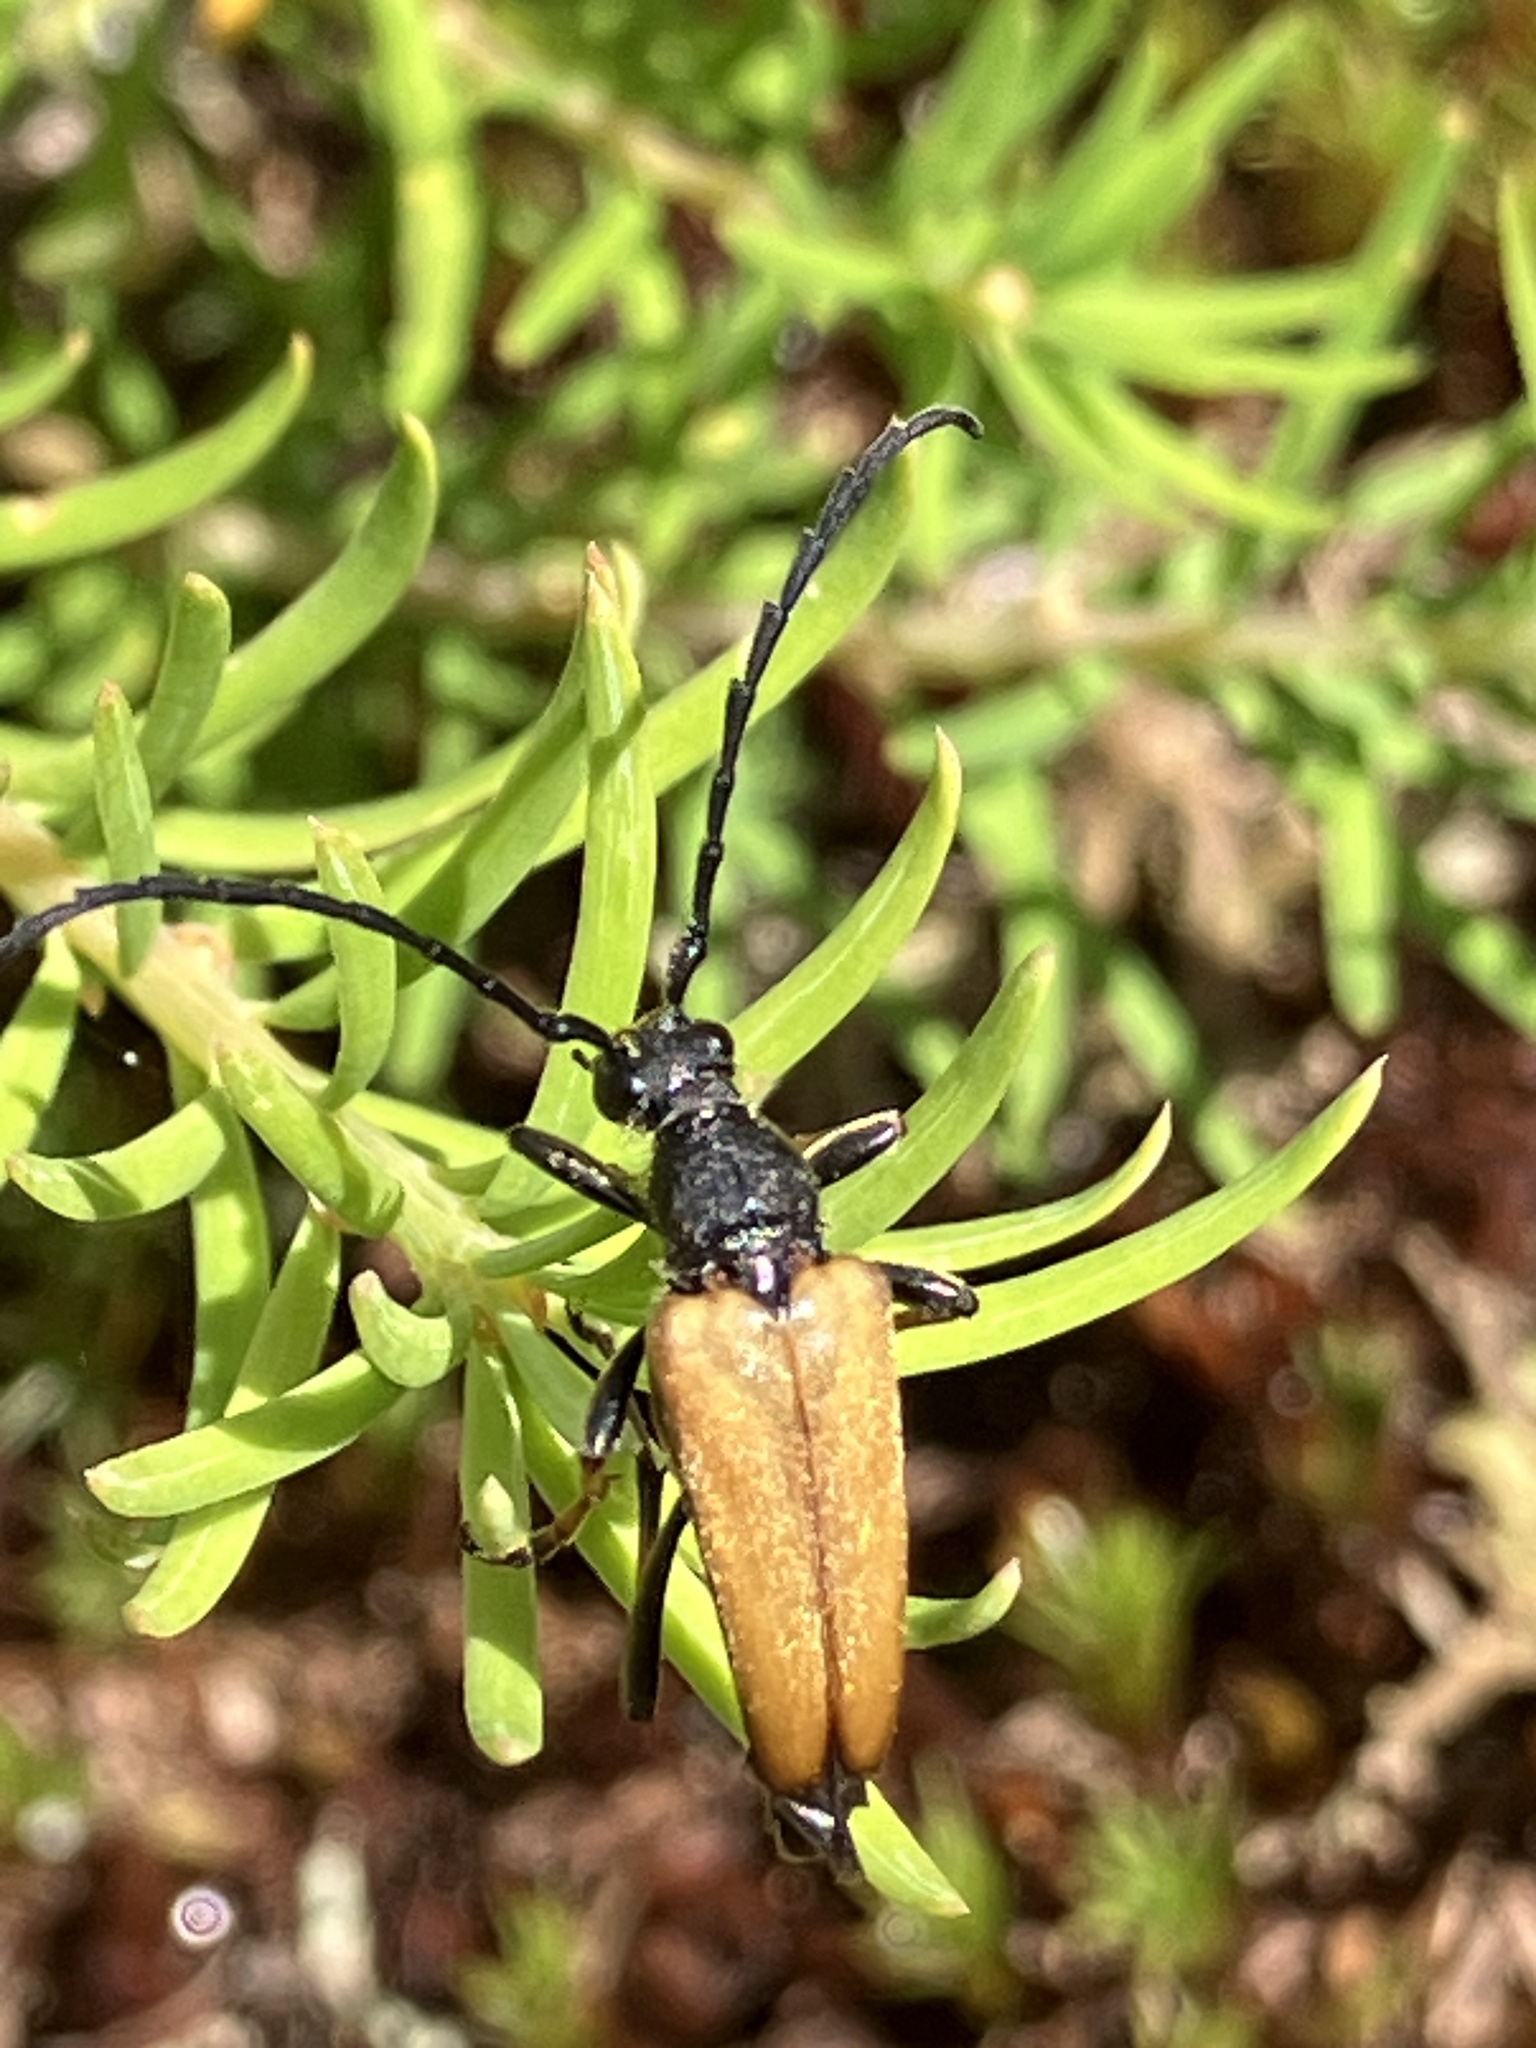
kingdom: Animalia
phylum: Arthropoda
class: Insecta
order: Coleoptera
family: Cerambycidae
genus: Stictoleptura
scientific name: Stictoleptura rubra
